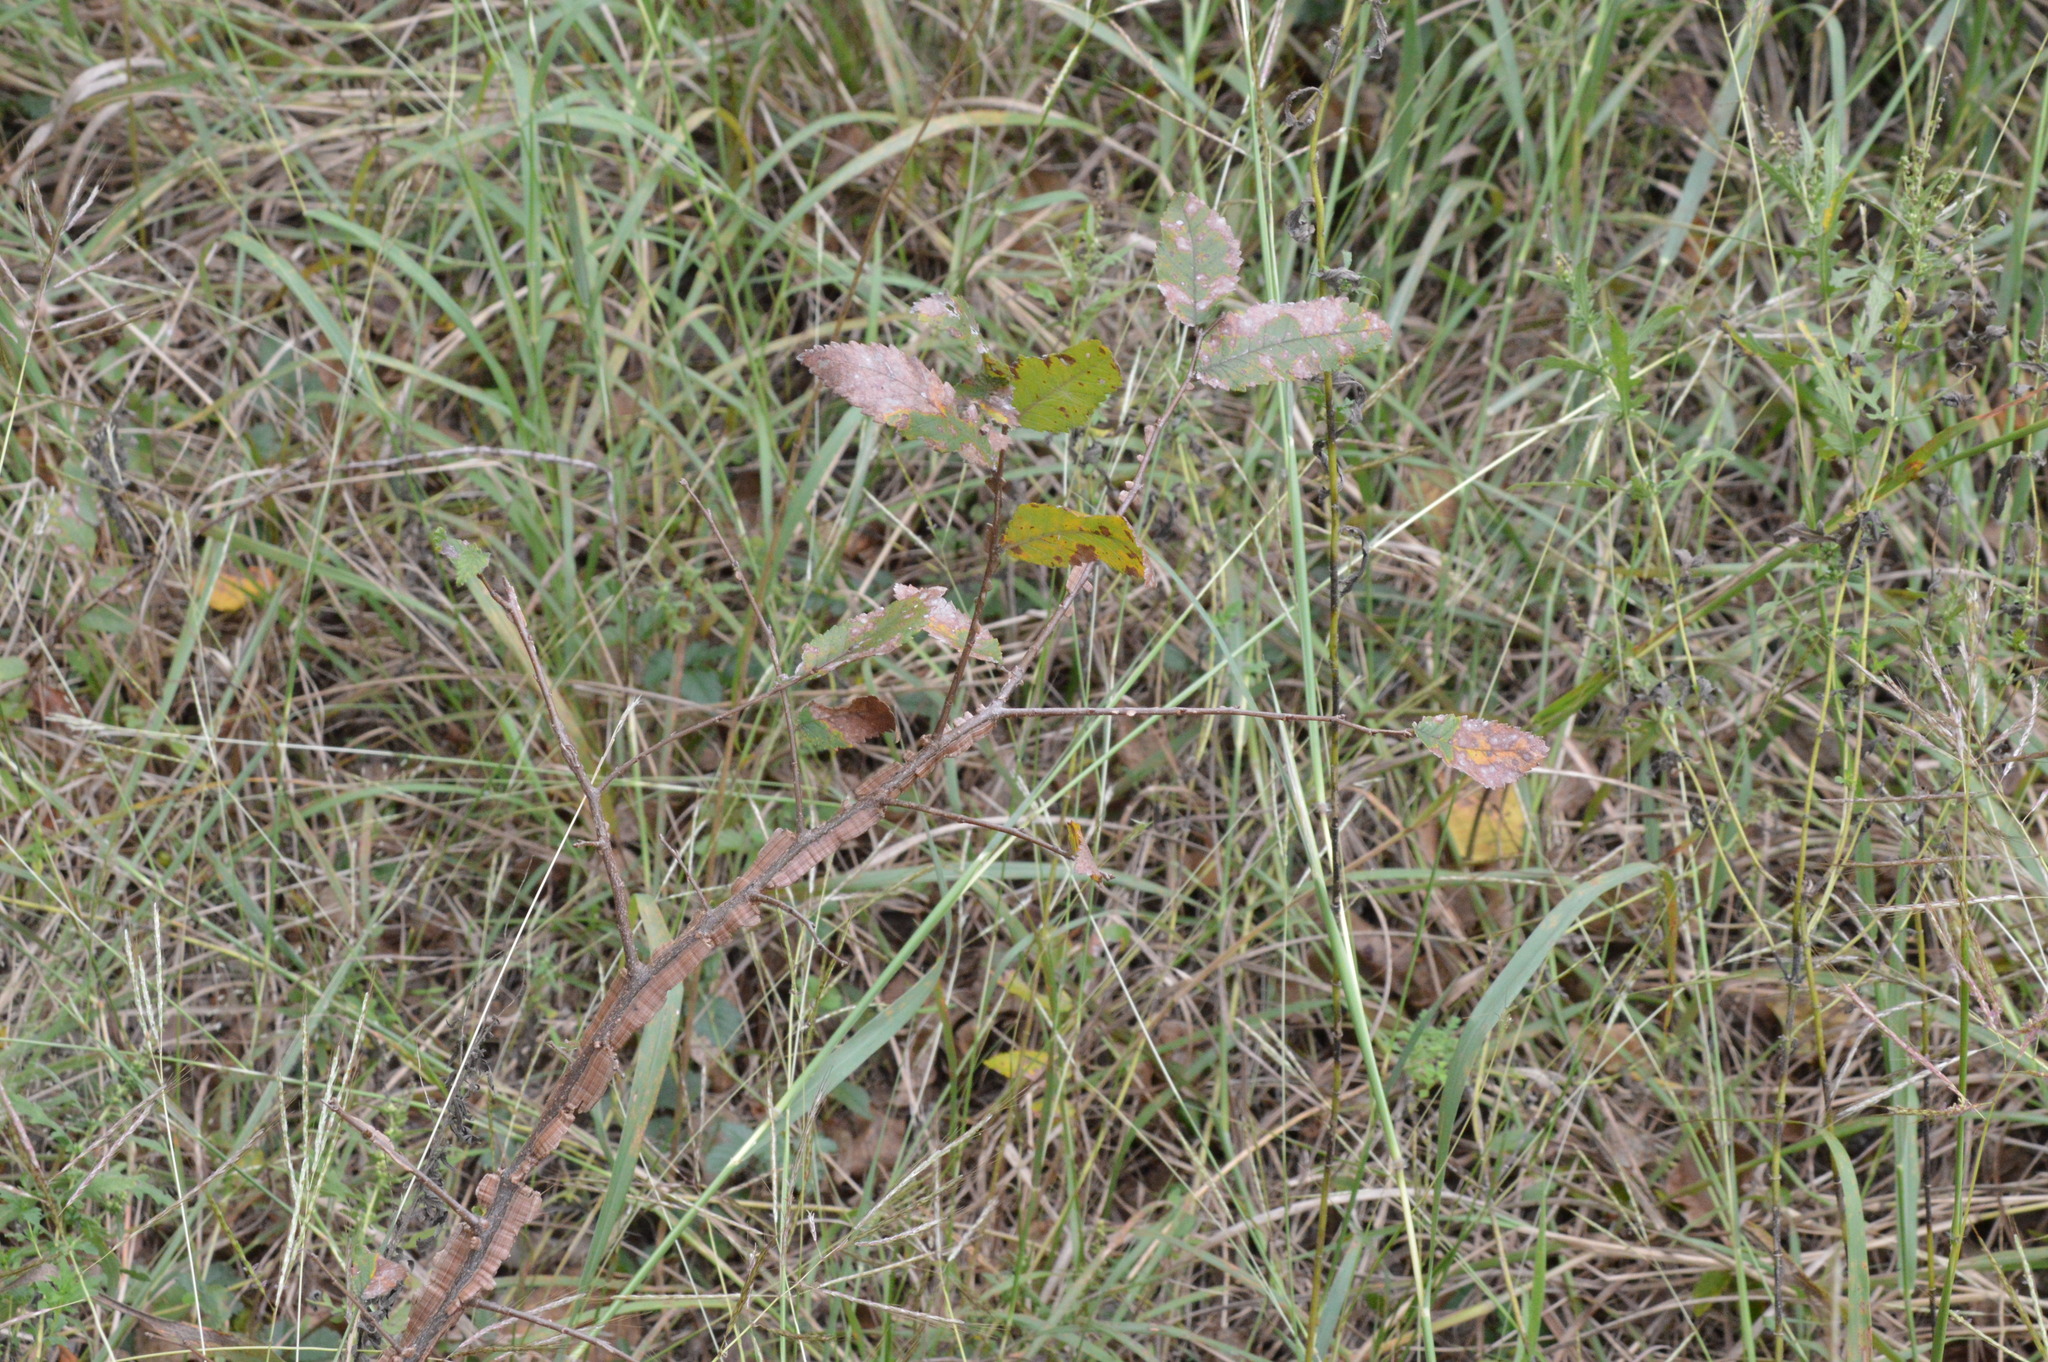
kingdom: Plantae
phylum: Tracheophyta
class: Magnoliopsida
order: Rosales
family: Ulmaceae
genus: Ulmus
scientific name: Ulmus alata
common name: Winged elm
